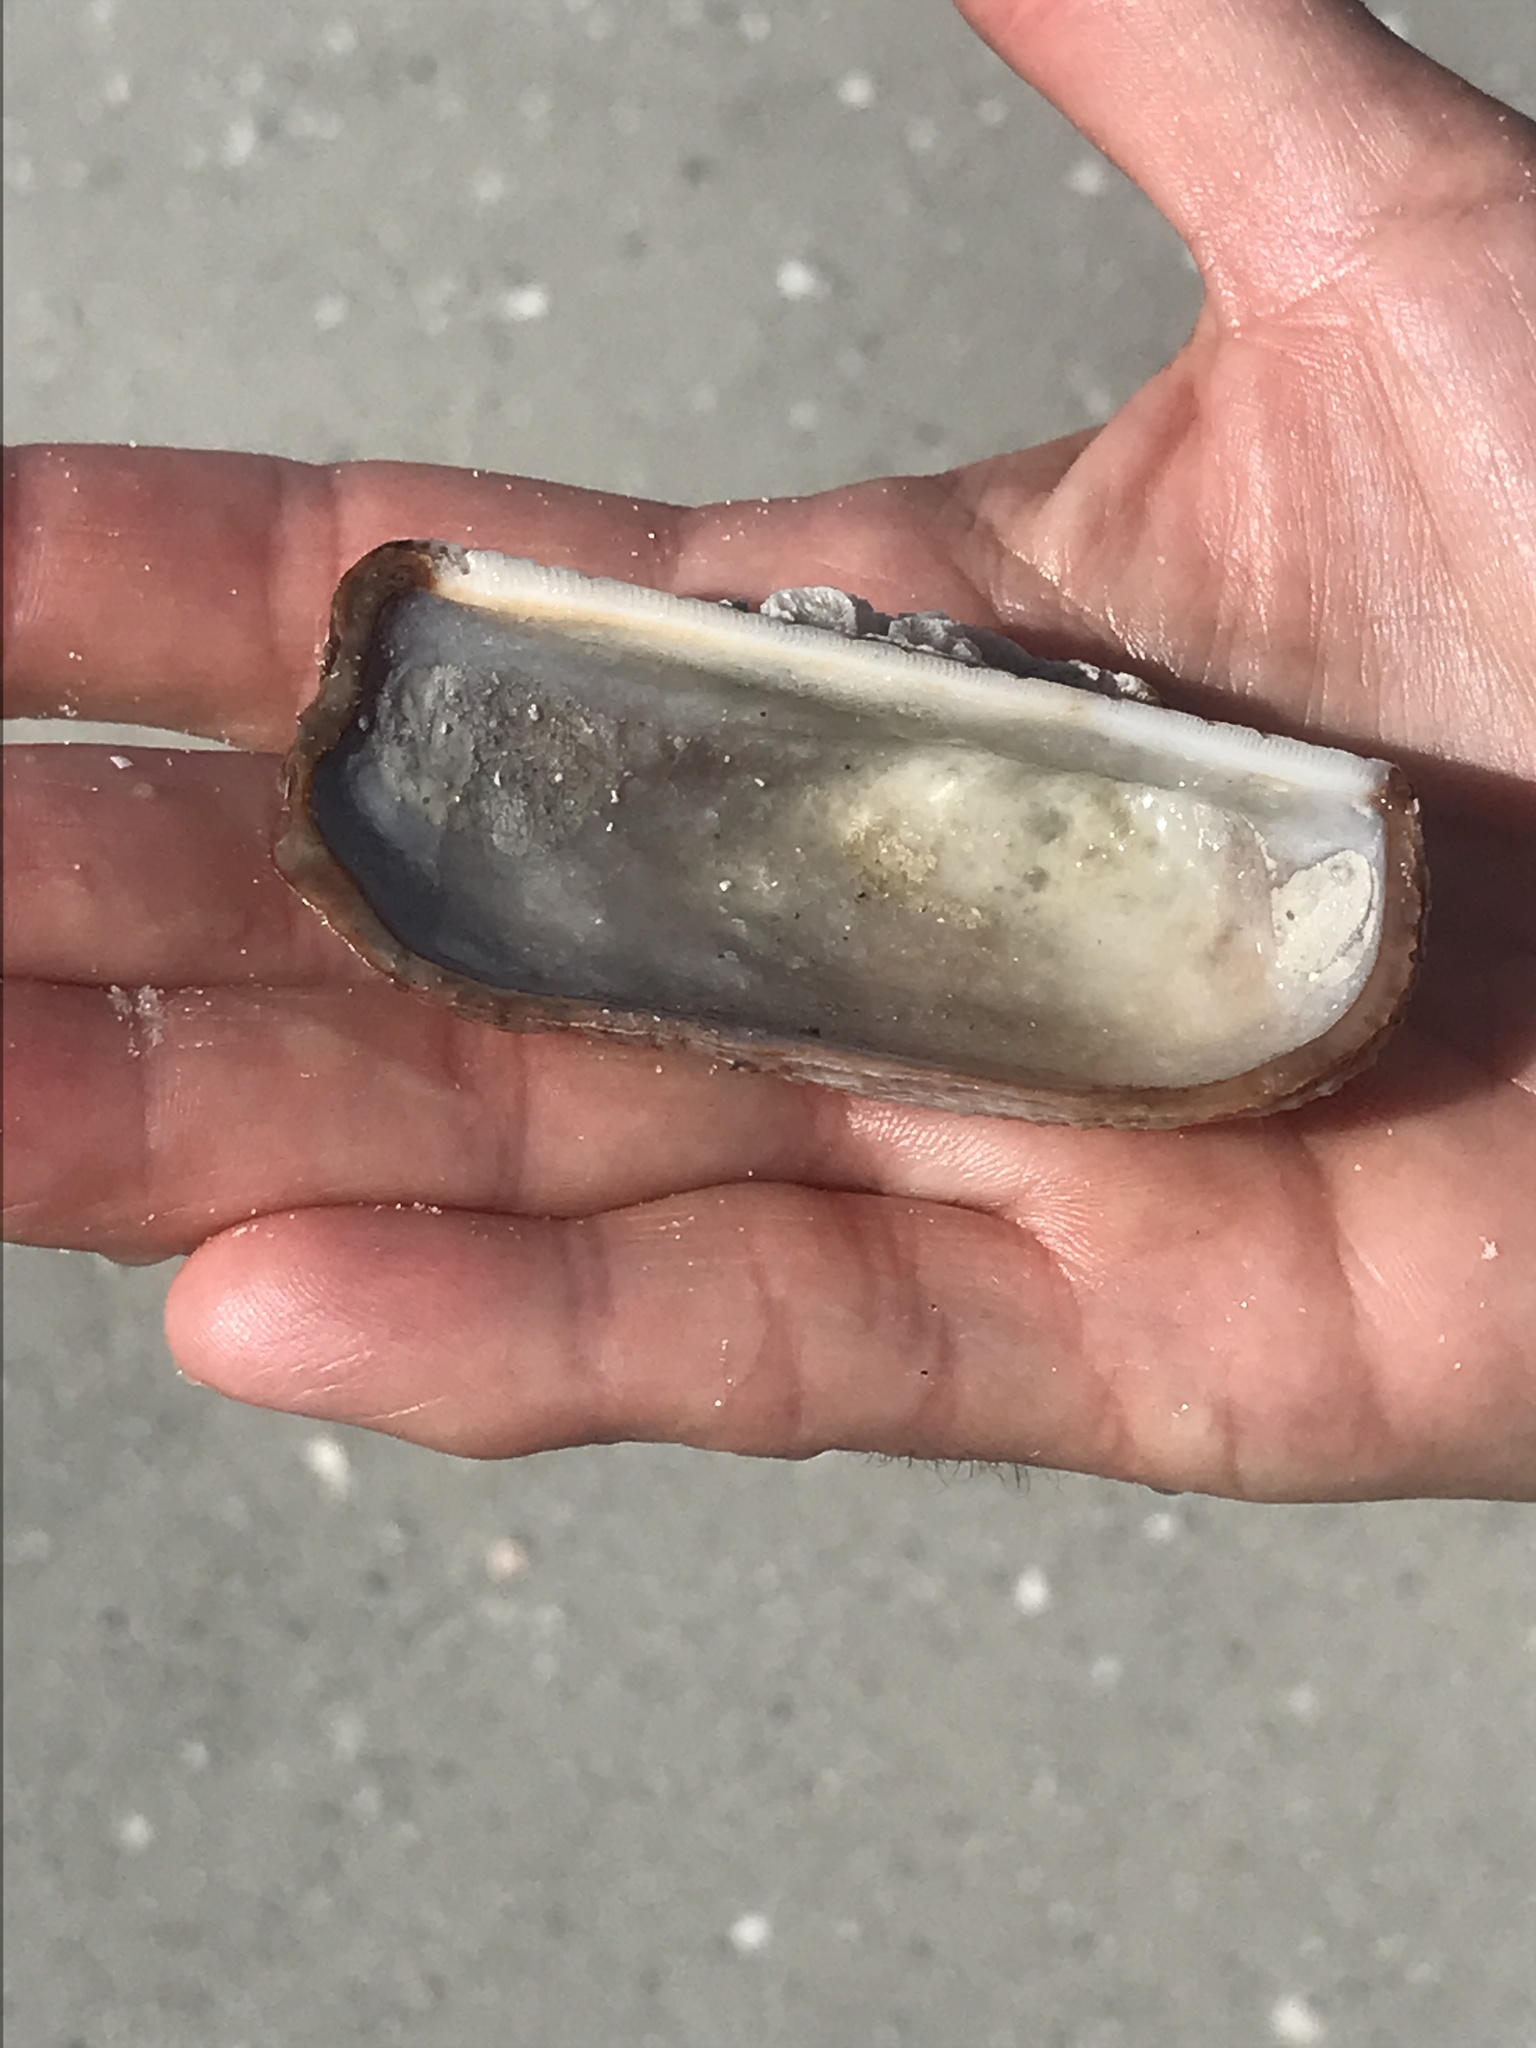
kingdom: Animalia
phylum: Mollusca
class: Bivalvia
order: Arcida
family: Arcidae
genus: Arca
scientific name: Arca zebra
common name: Atlantic turkey wing
